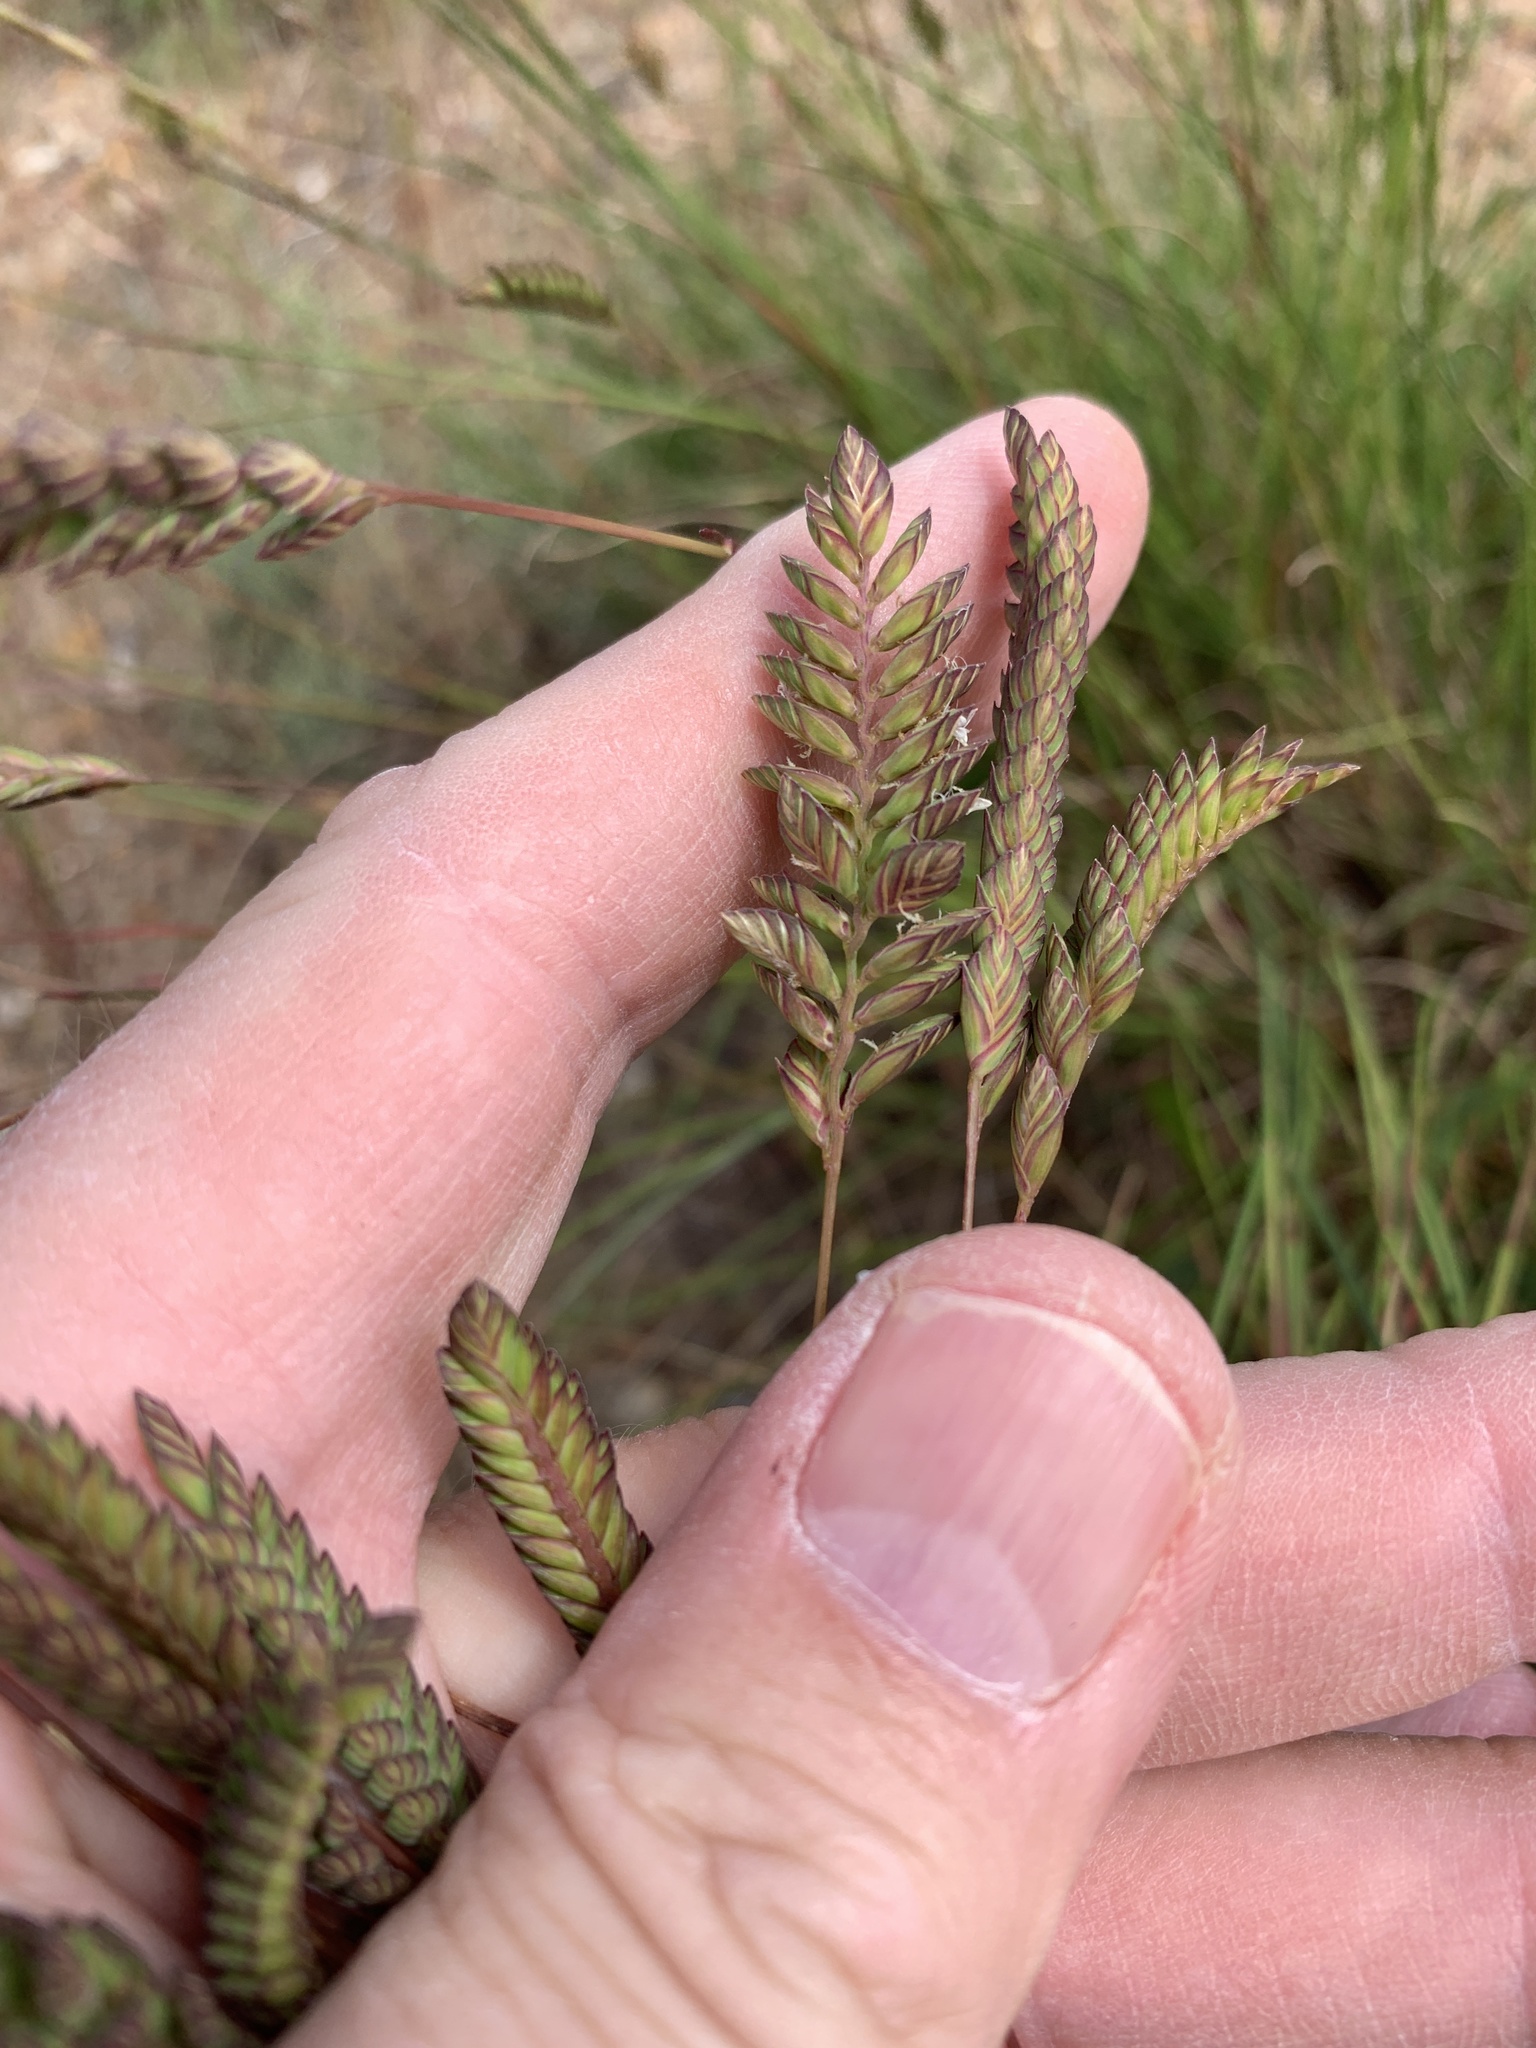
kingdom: Plantae
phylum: Tracheophyta
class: Liliopsida
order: Poales
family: Poaceae
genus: Tribolium
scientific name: Tribolium uniolae
